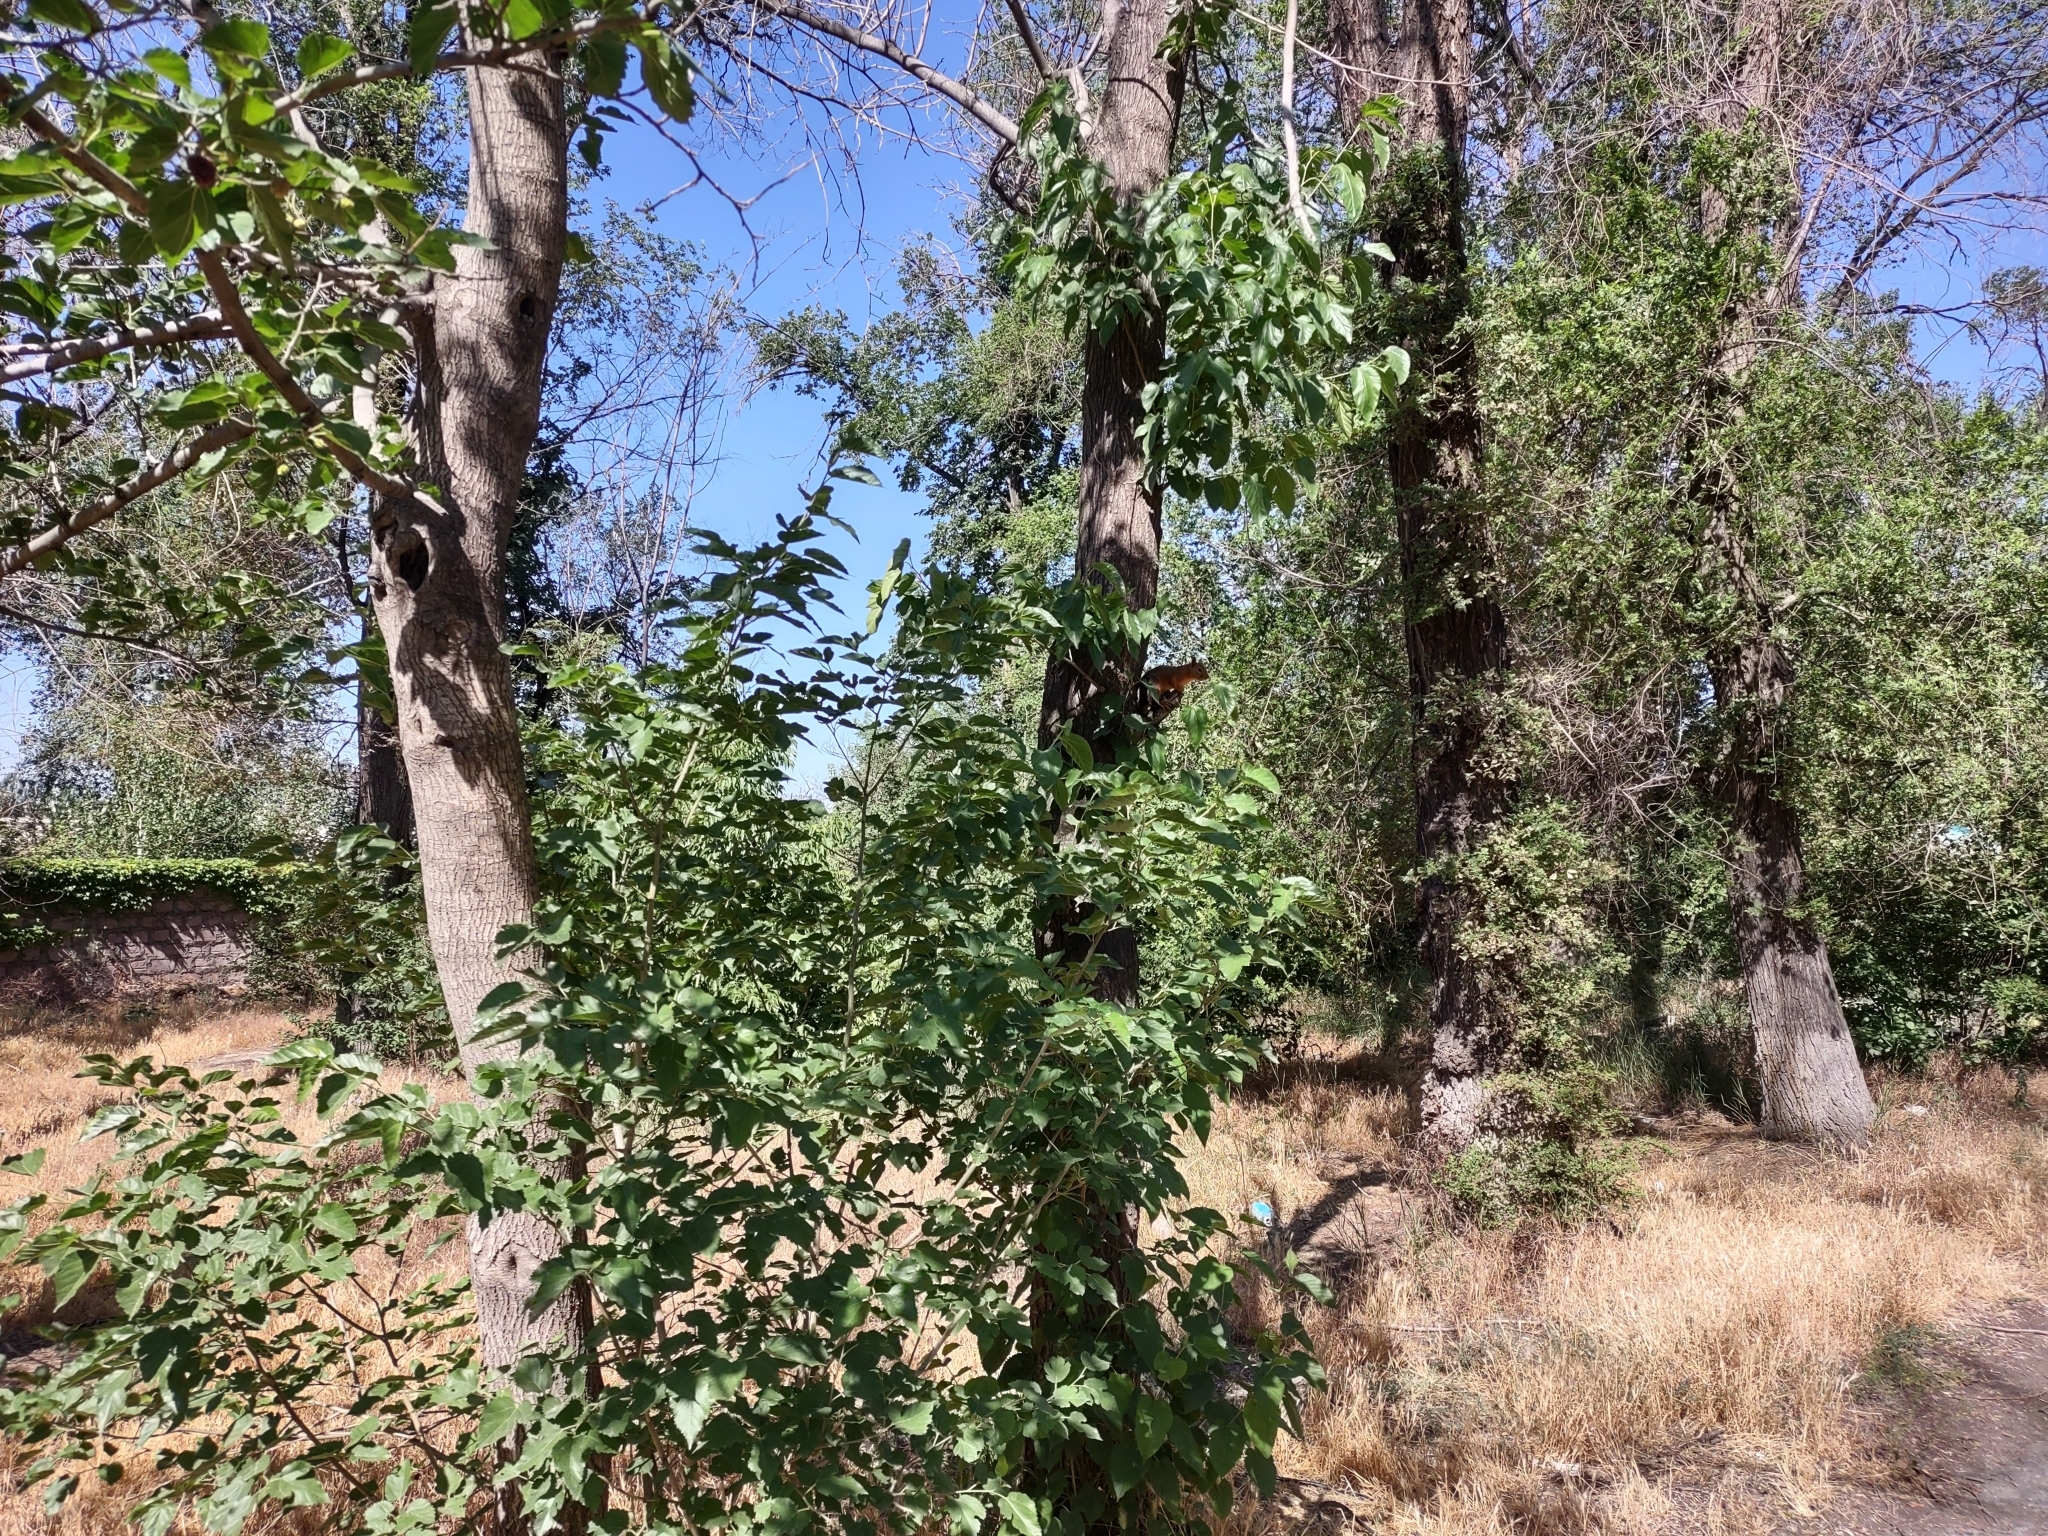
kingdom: Animalia
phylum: Chordata
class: Mammalia
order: Rodentia
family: Sciuridae
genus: Sciurus
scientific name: Sciurus anomalus
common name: Caucasian squirrel
